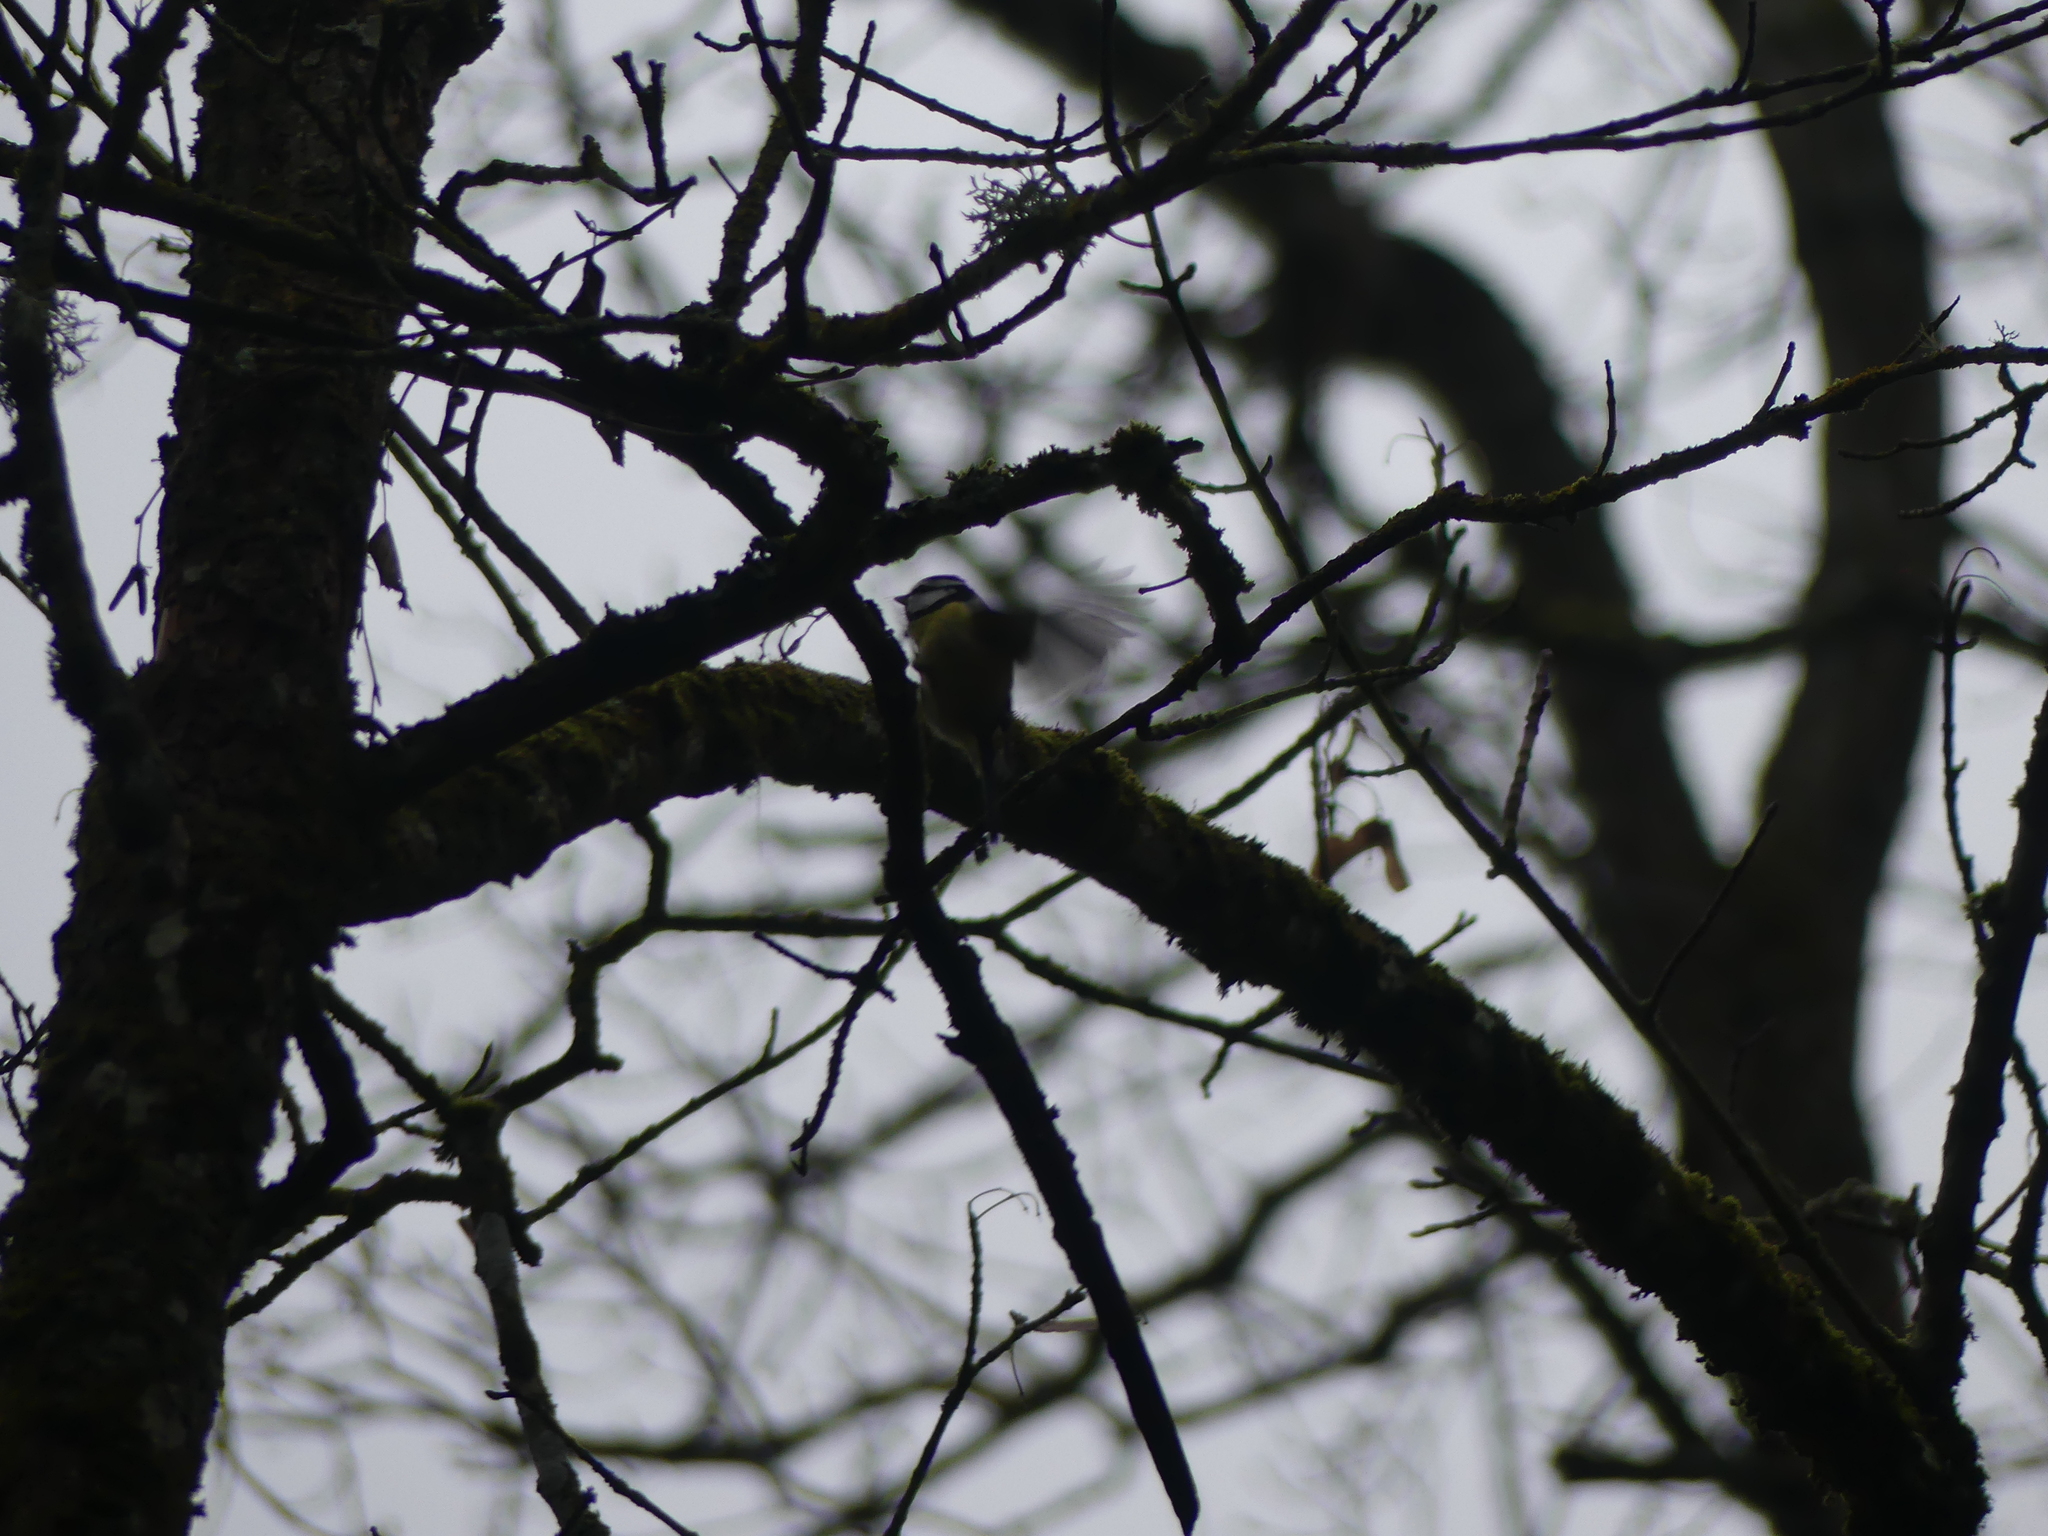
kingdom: Animalia
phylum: Chordata
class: Aves
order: Passeriformes
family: Paridae
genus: Cyanistes
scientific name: Cyanistes caeruleus
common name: Eurasian blue tit
